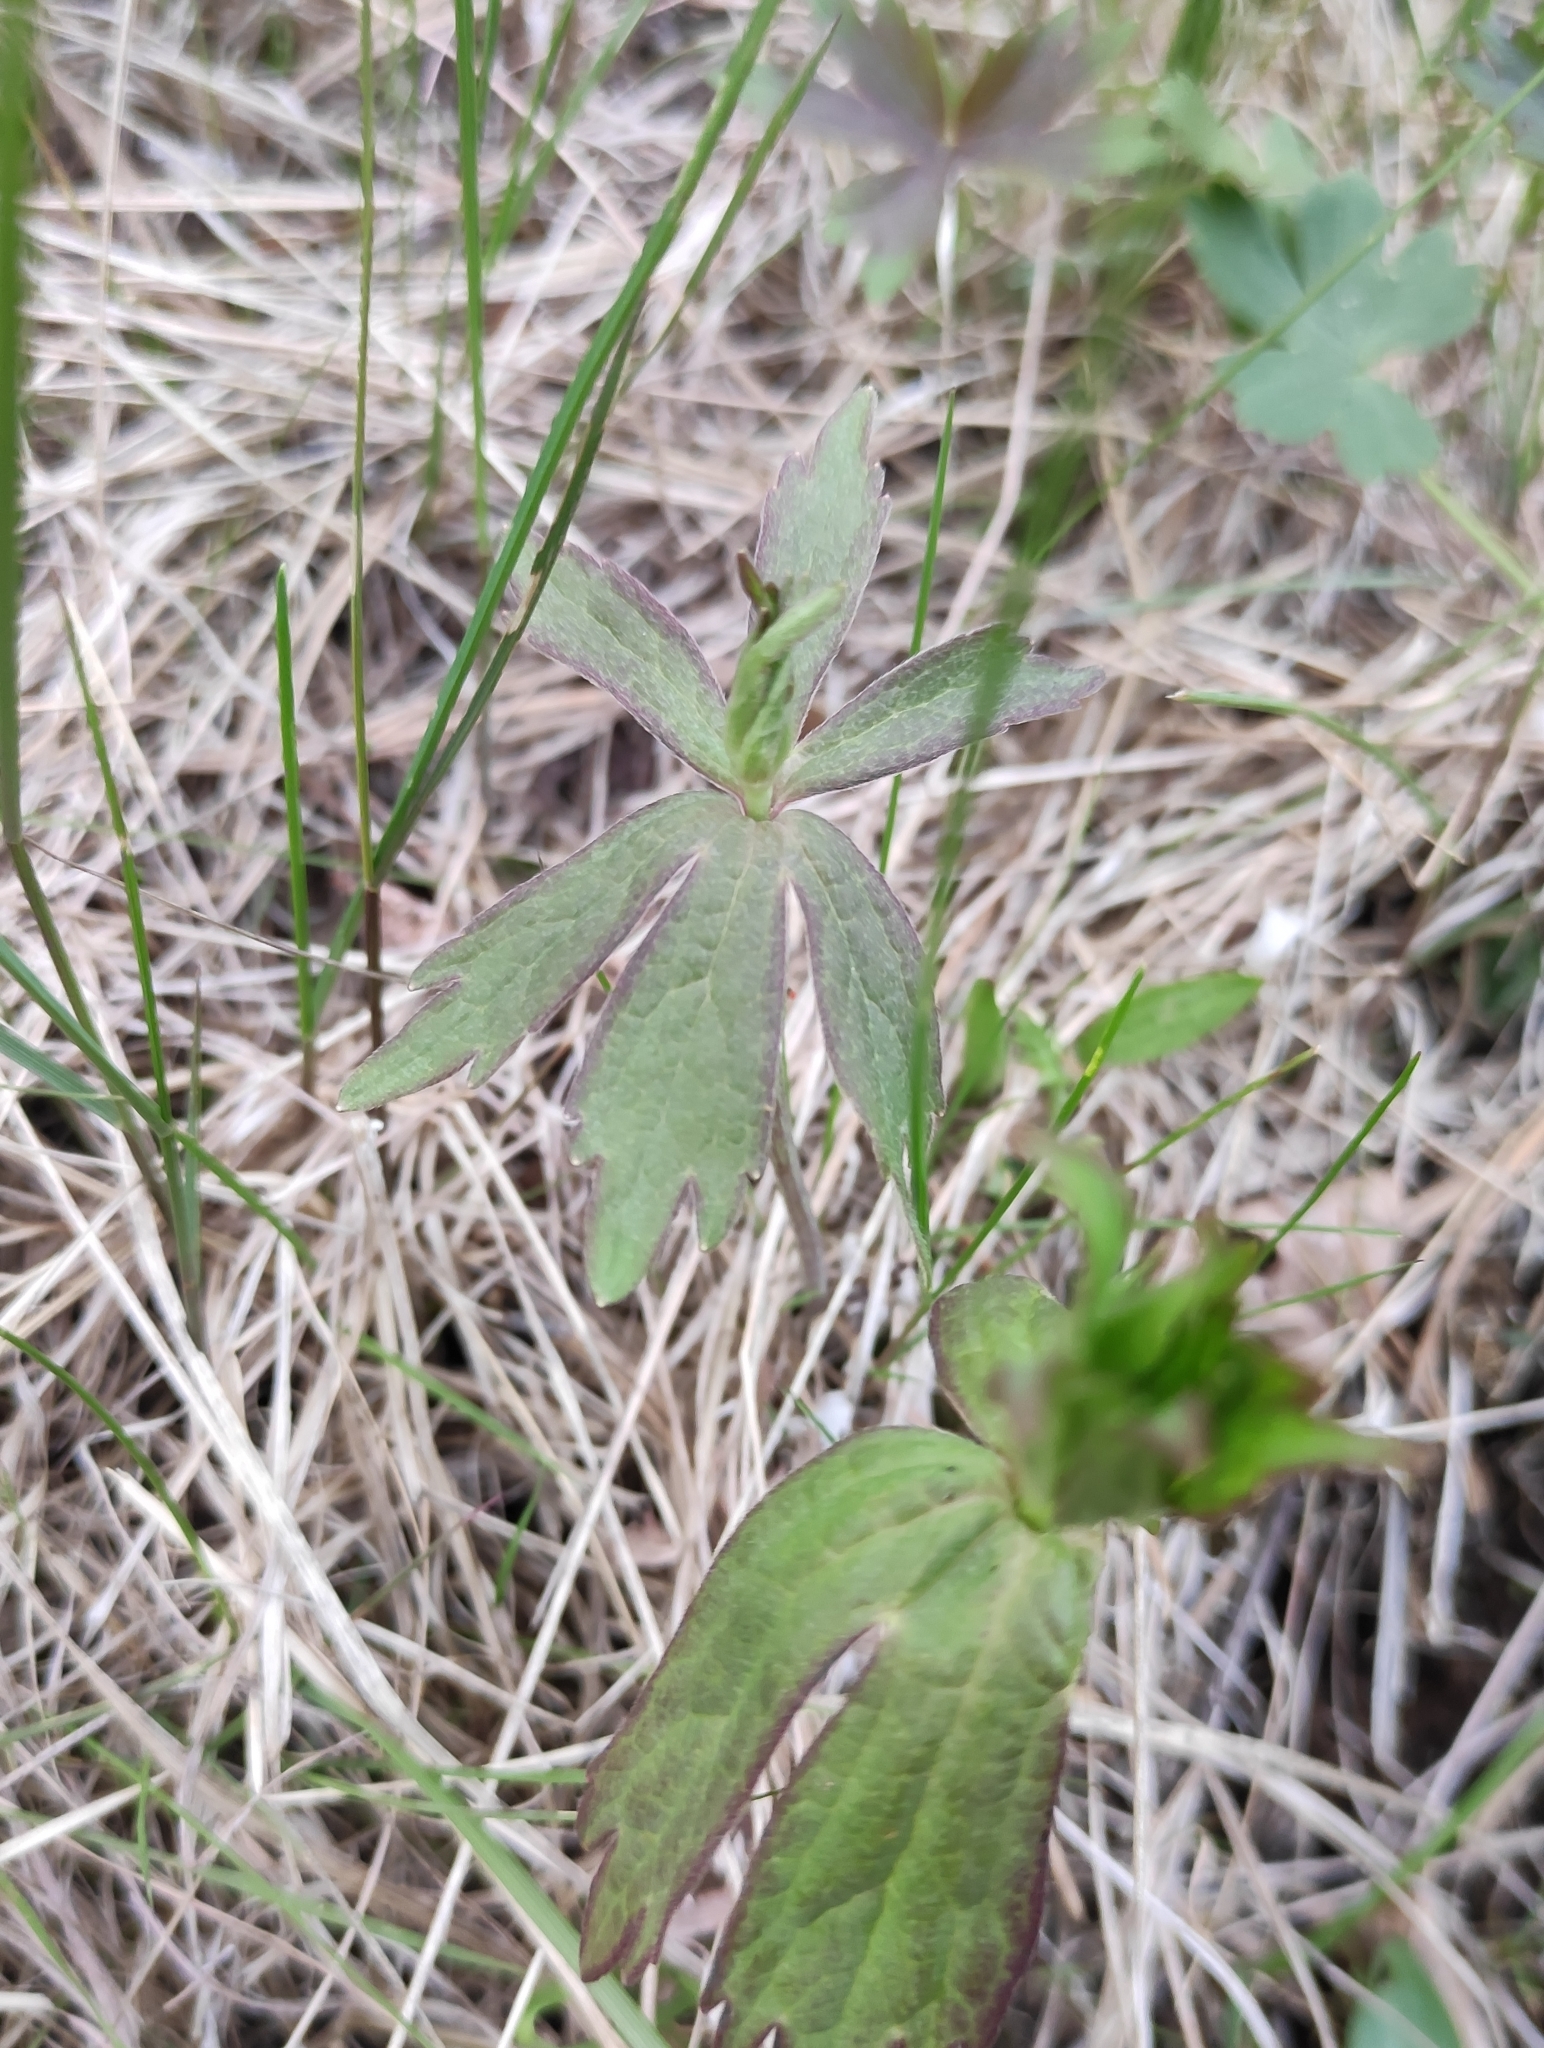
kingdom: Plantae
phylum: Tracheophyta
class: Magnoliopsida
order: Ranunculales
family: Ranunculaceae
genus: Anemonastrum
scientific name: Anemonastrum dichotomum
